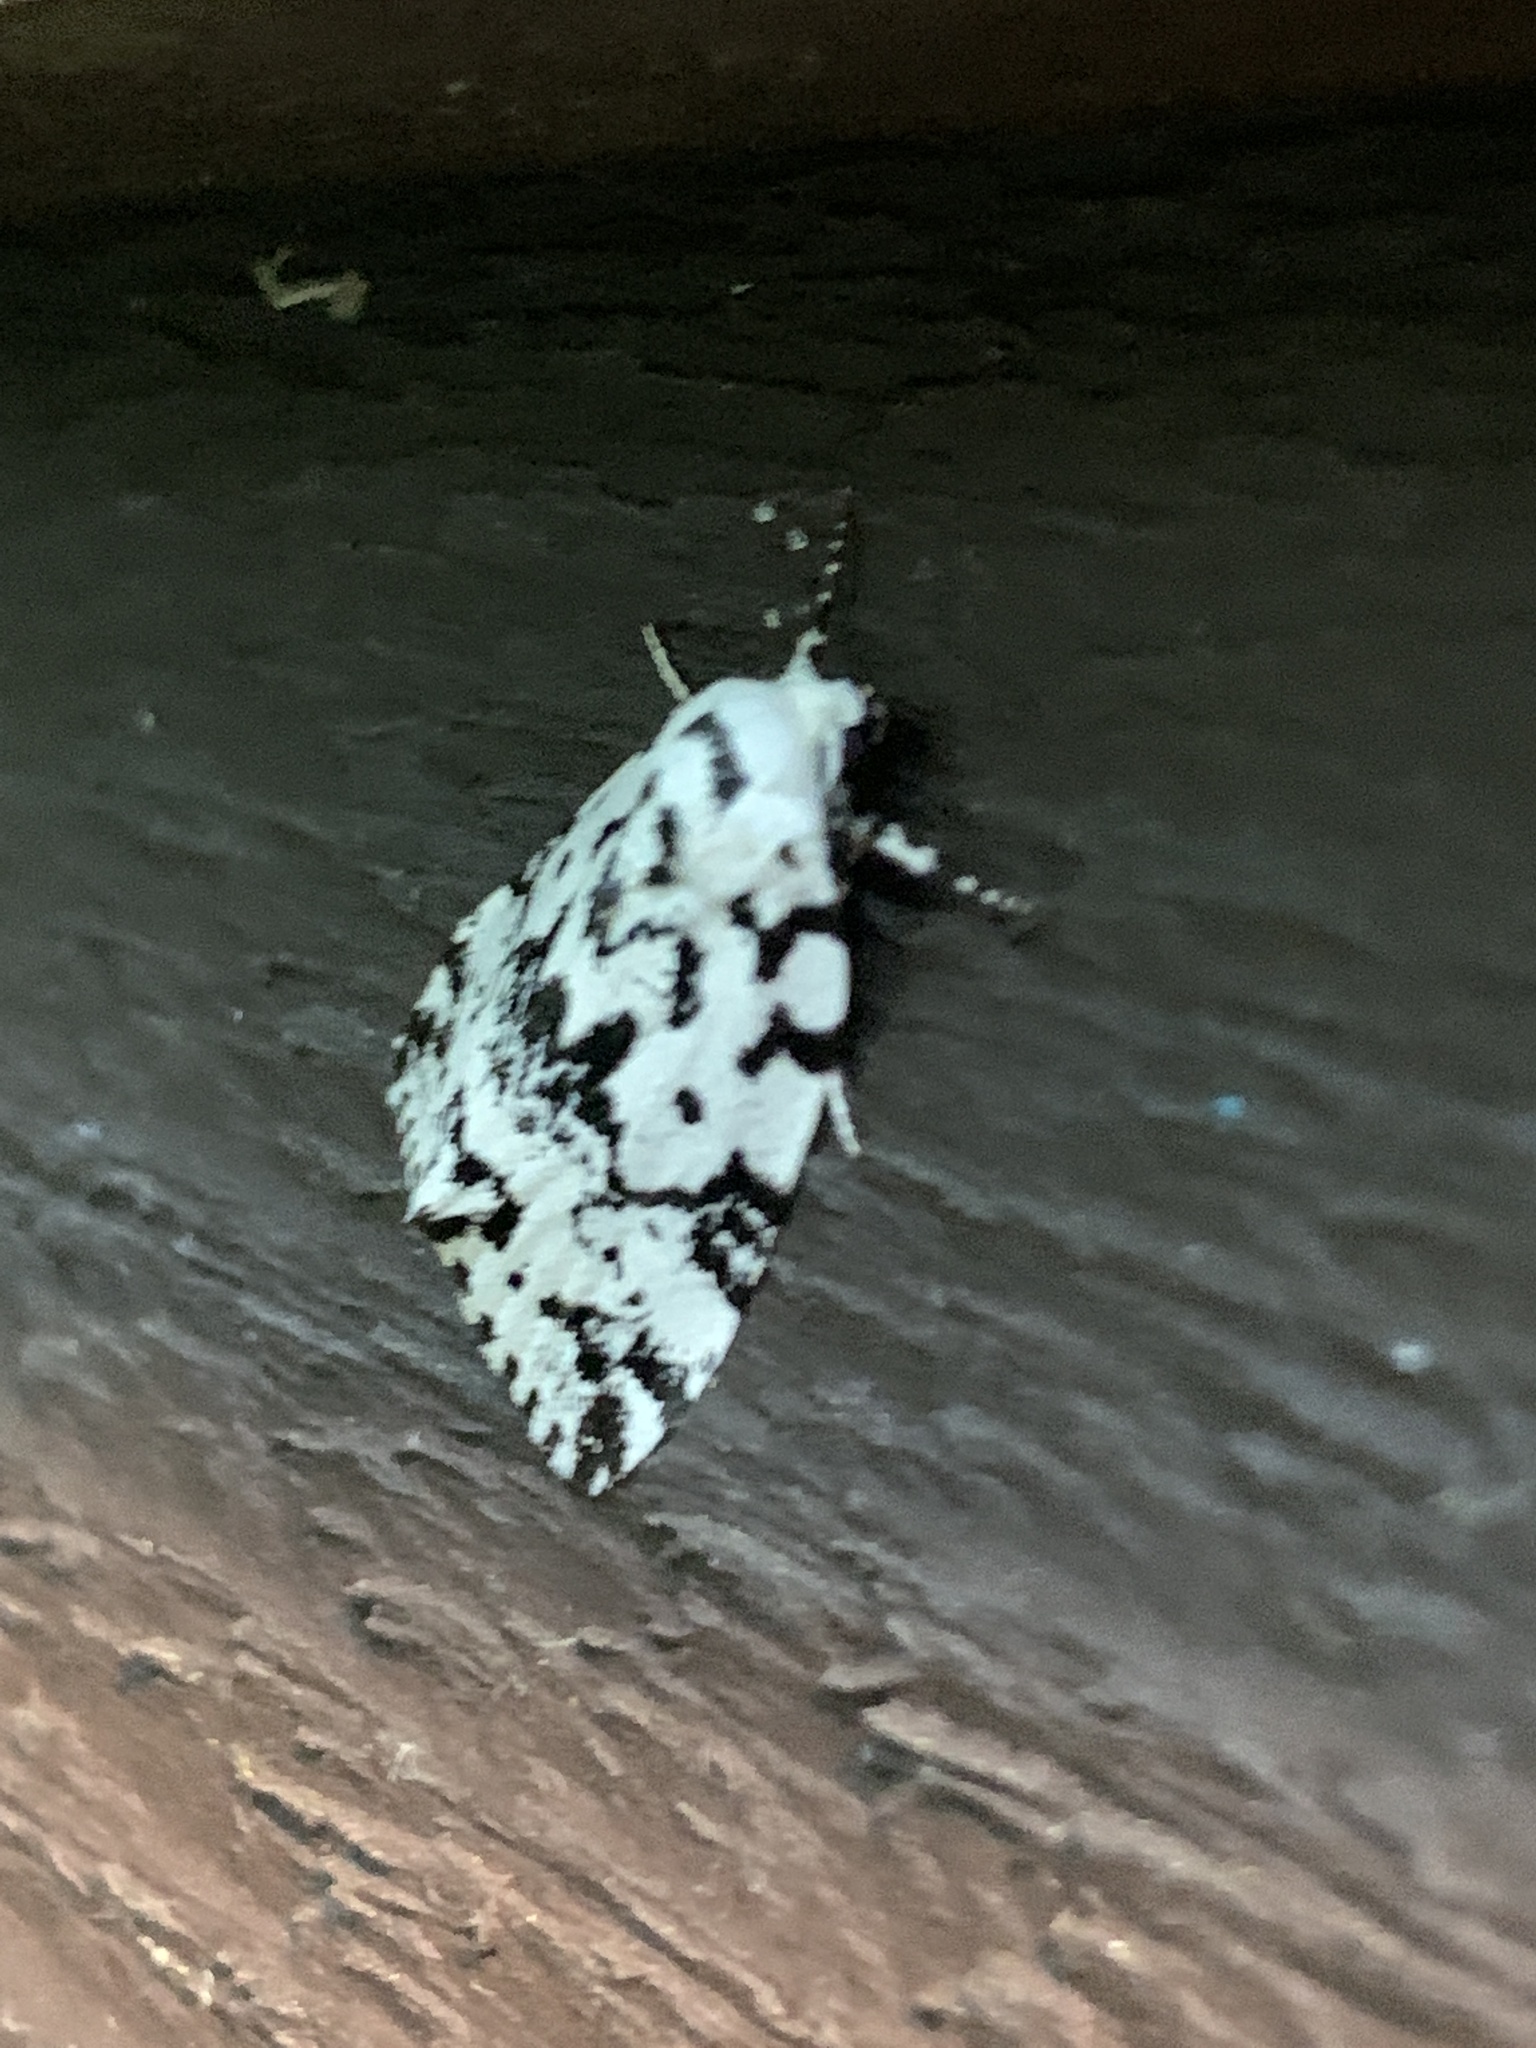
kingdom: Animalia
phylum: Arthropoda
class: Insecta
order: Lepidoptera
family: Noctuidae
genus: Polygrammate
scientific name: Polygrammate hebraeicum
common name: Hebrew moth
